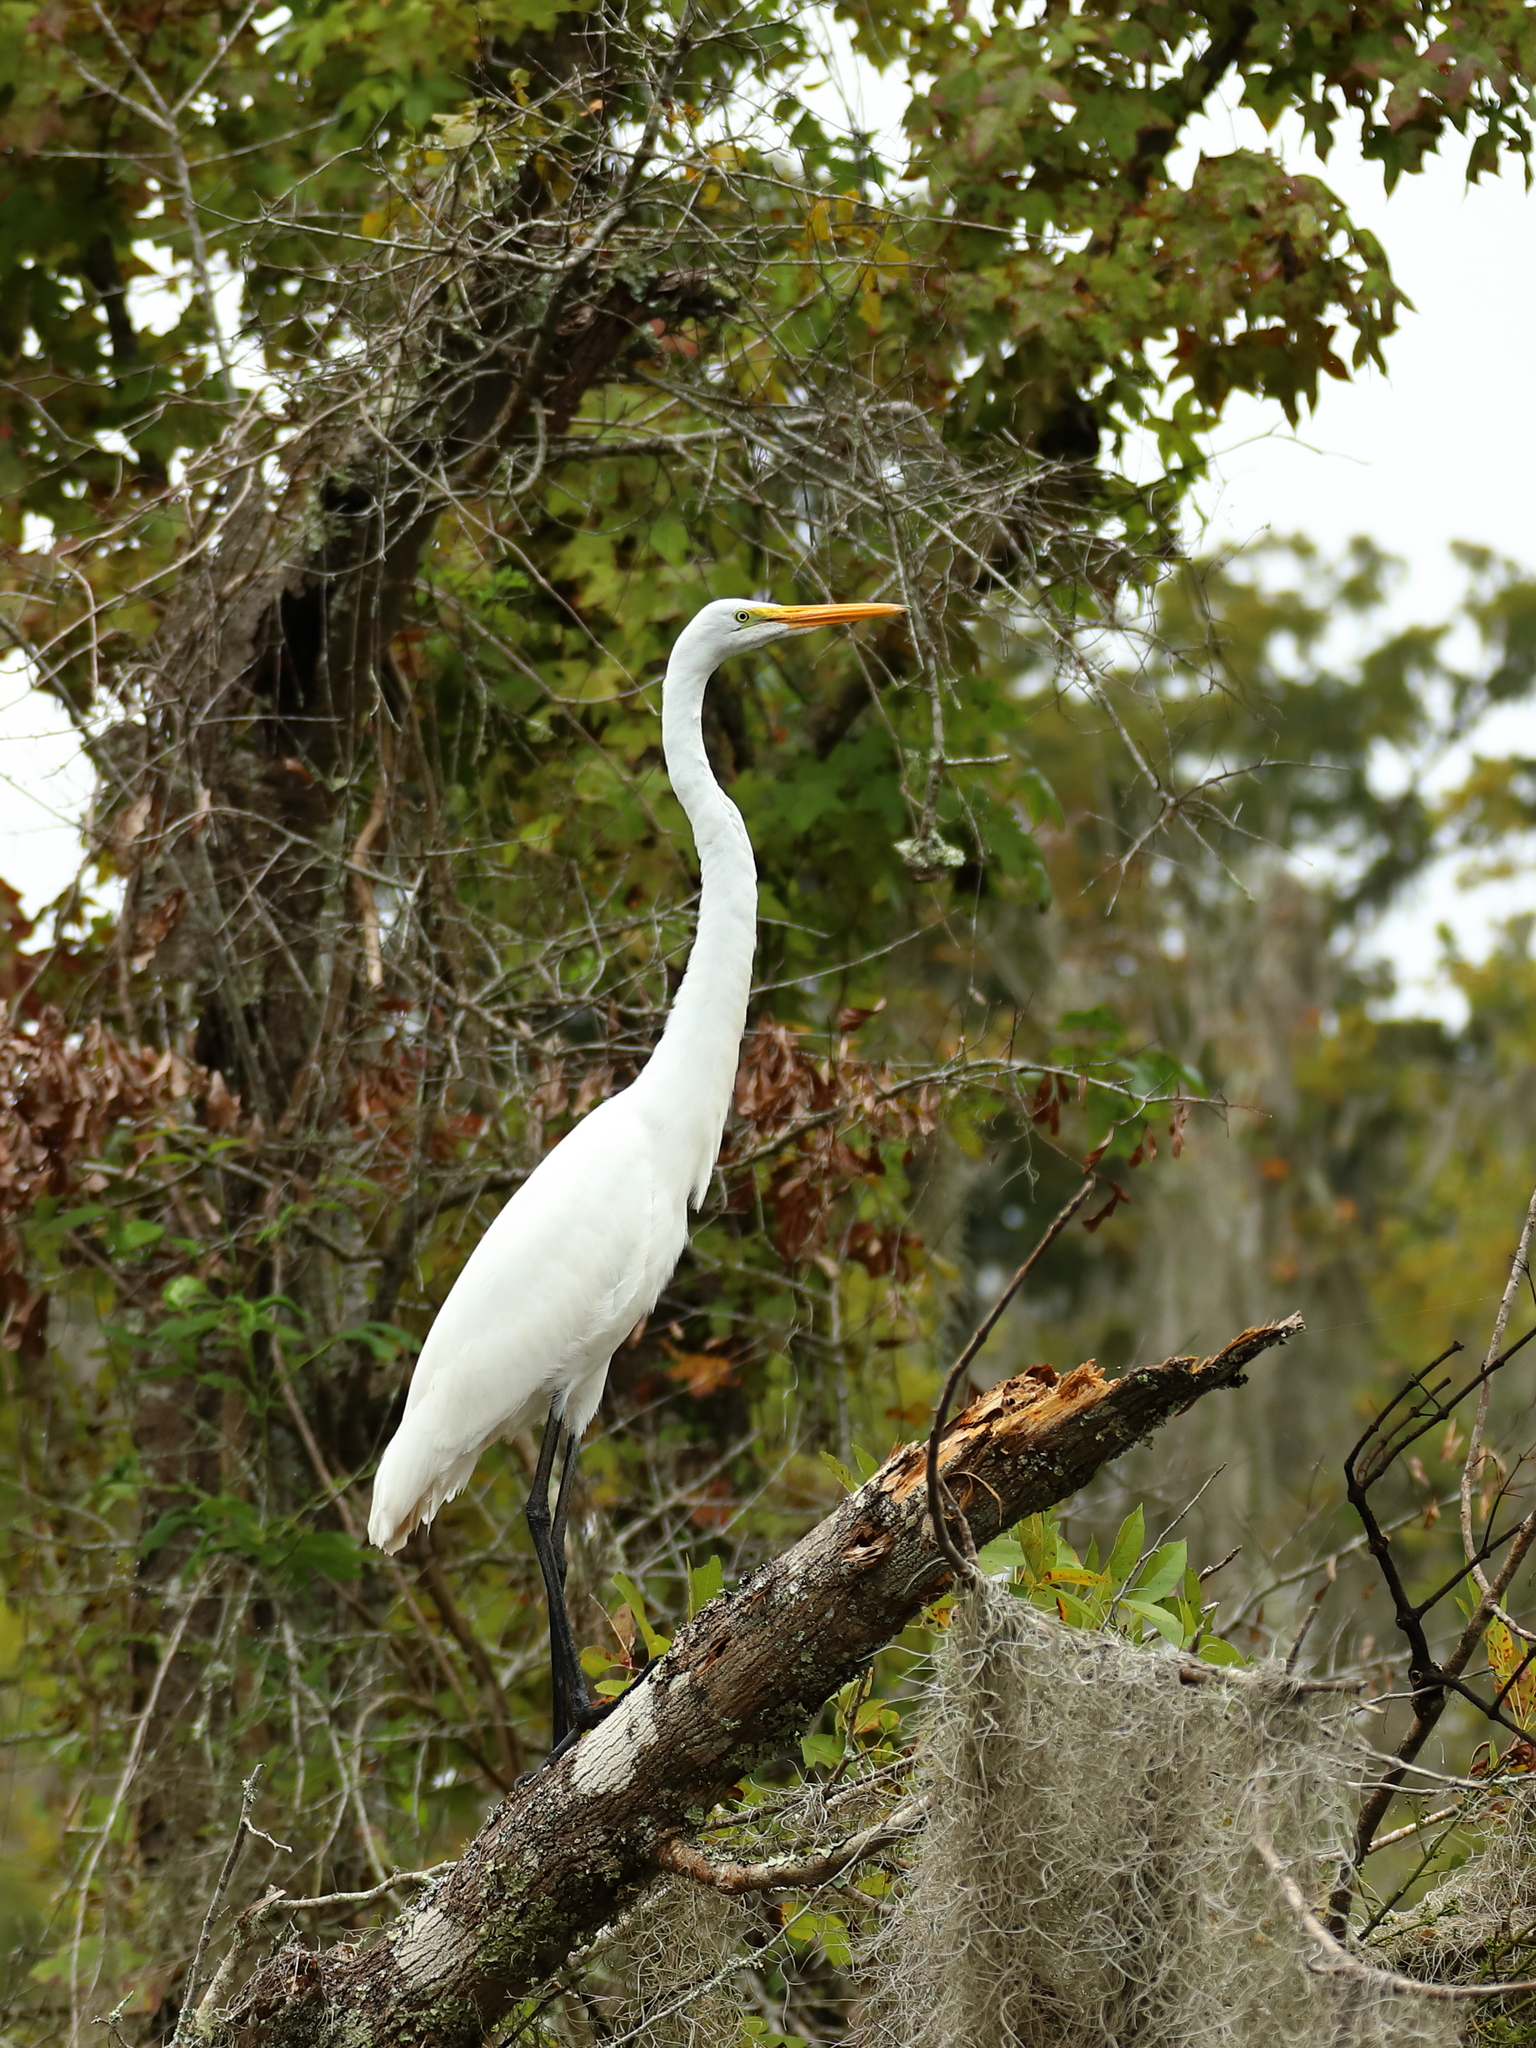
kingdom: Animalia
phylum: Chordata
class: Aves
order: Pelecaniformes
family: Ardeidae
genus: Ardea
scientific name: Ardea alba
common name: Great egret
